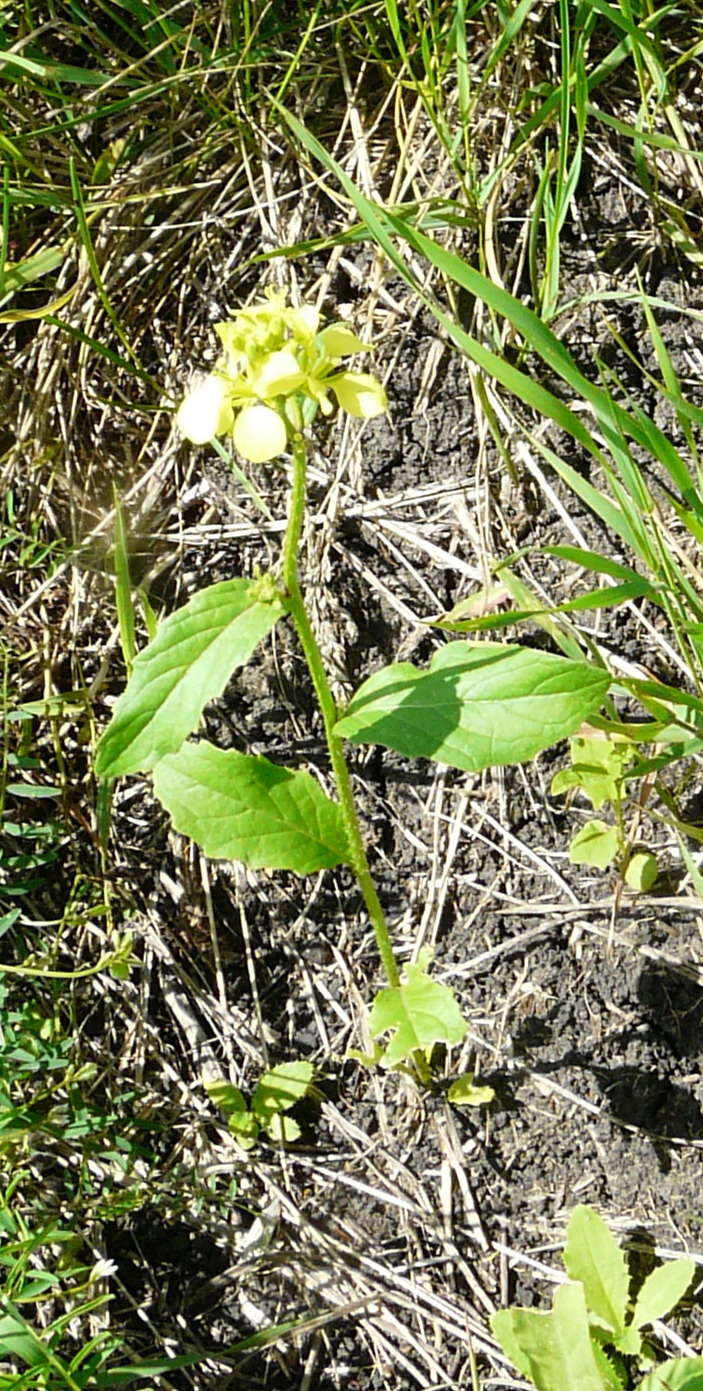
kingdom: Plantae
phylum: Tracheophyta
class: Magnoliopsida
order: Brassicales
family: Brassicaceae
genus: Sinapis
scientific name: Sinapis arvensis
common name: Charlock
